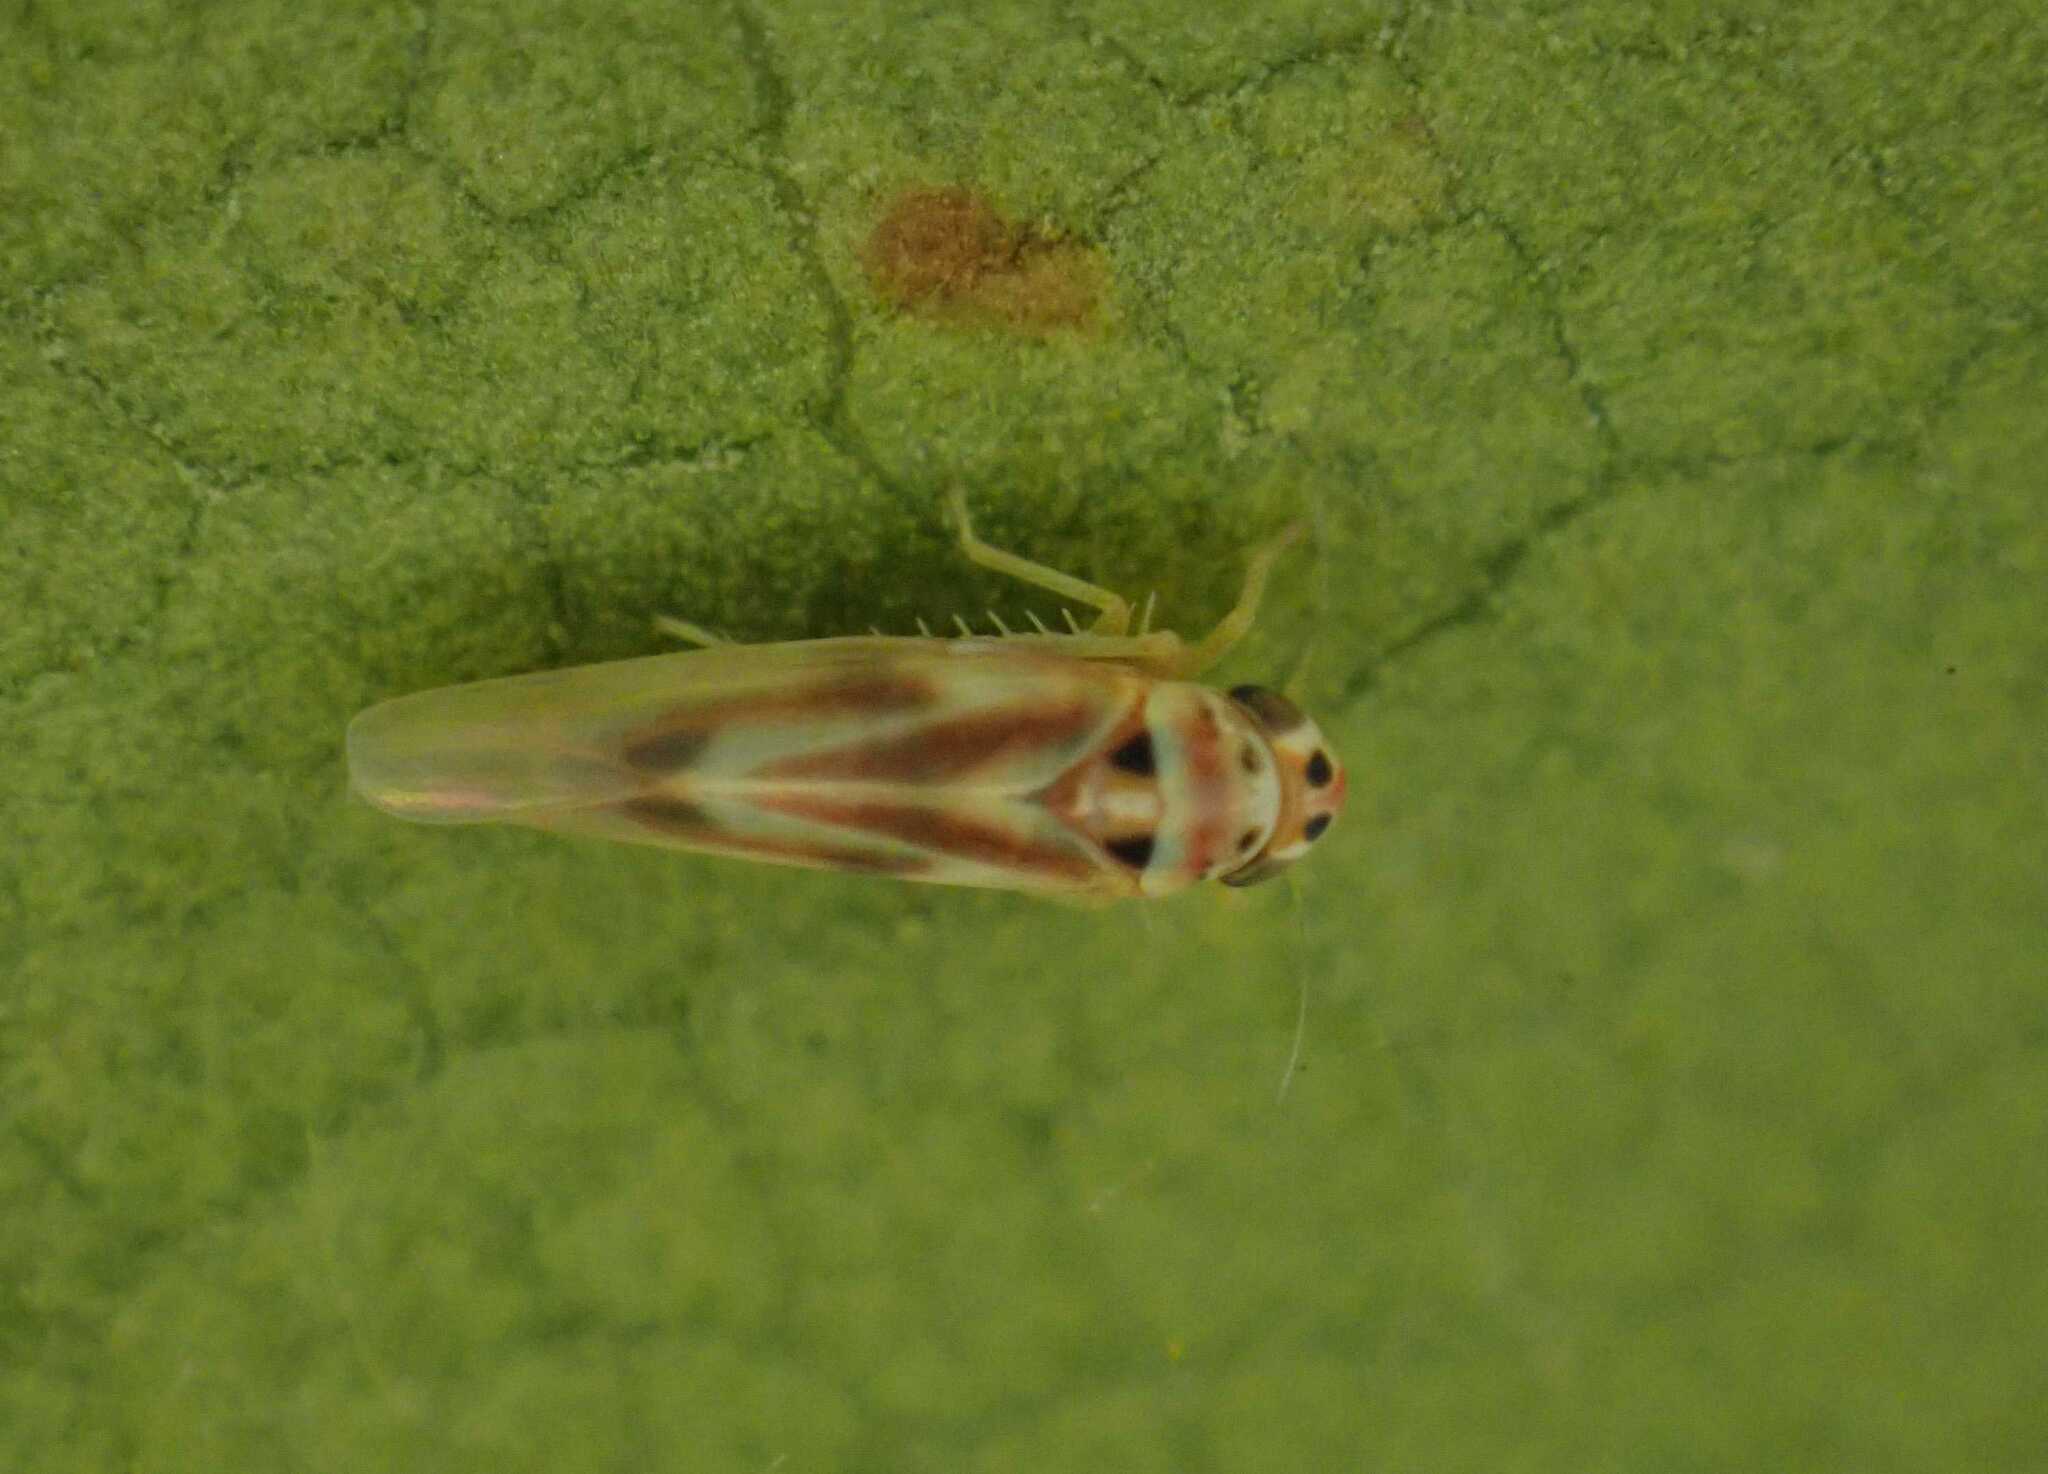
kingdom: Animalia
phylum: Arthropoda
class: Insecta
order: Hemiptera
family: Cicadellidae
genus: Arboridia
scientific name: Arboridia
